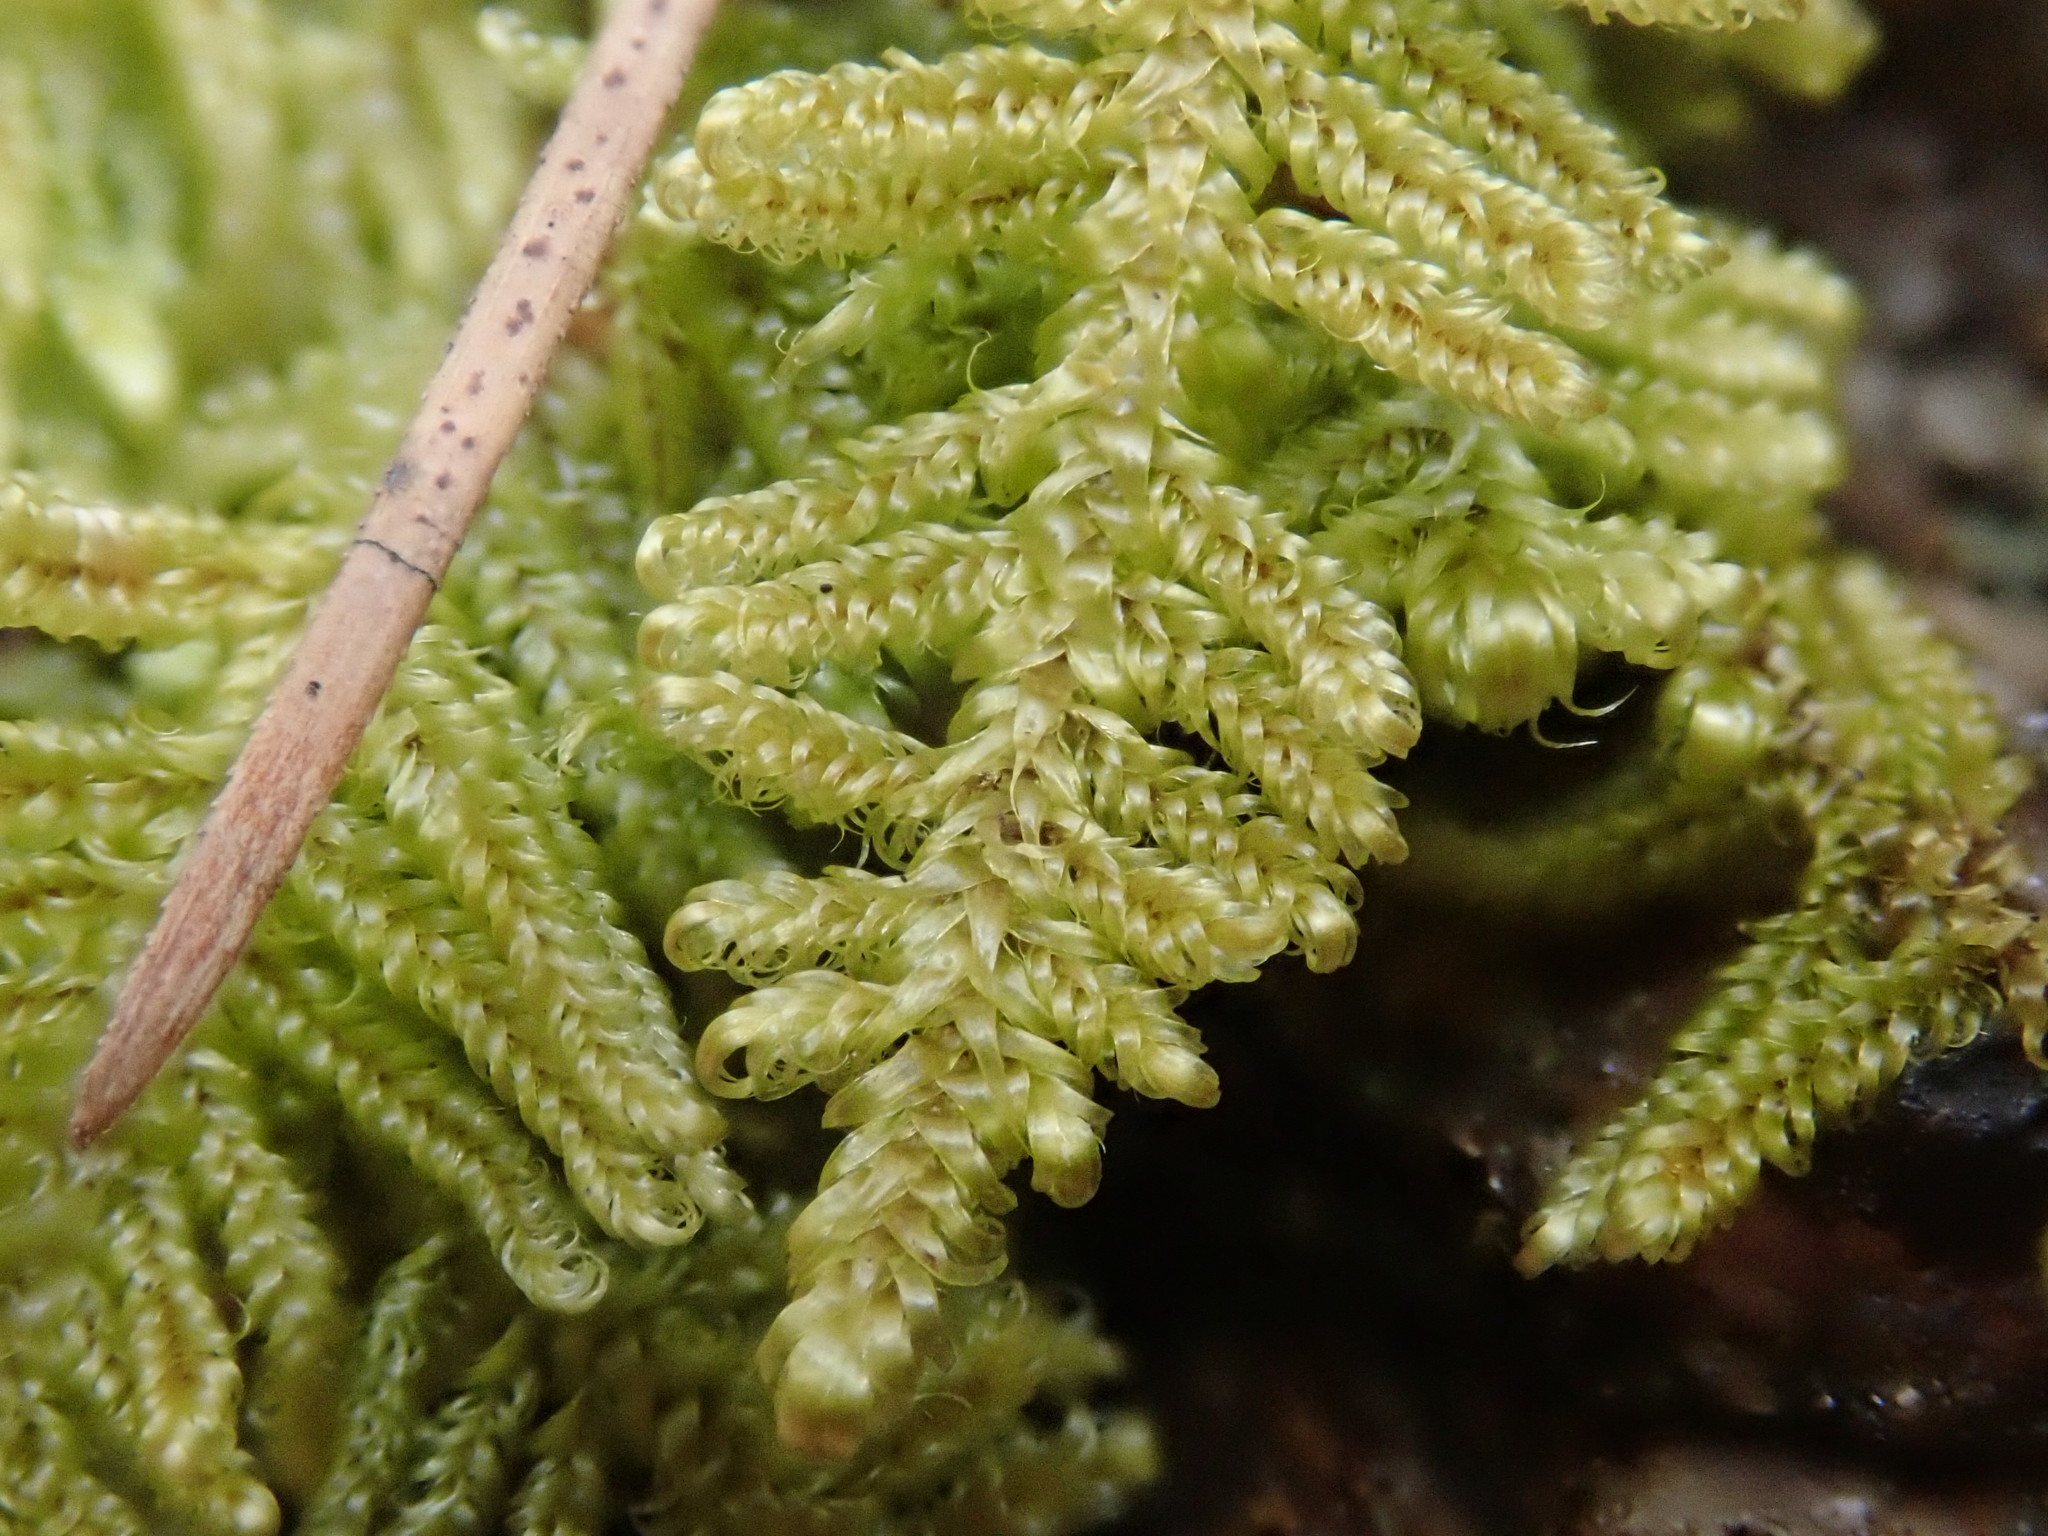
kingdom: Plantae
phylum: Bryophyta
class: Bryopsida
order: Hypnales
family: Callicladiaceae
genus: Callicladium
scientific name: Callicladium imponens
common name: Brocade moss
